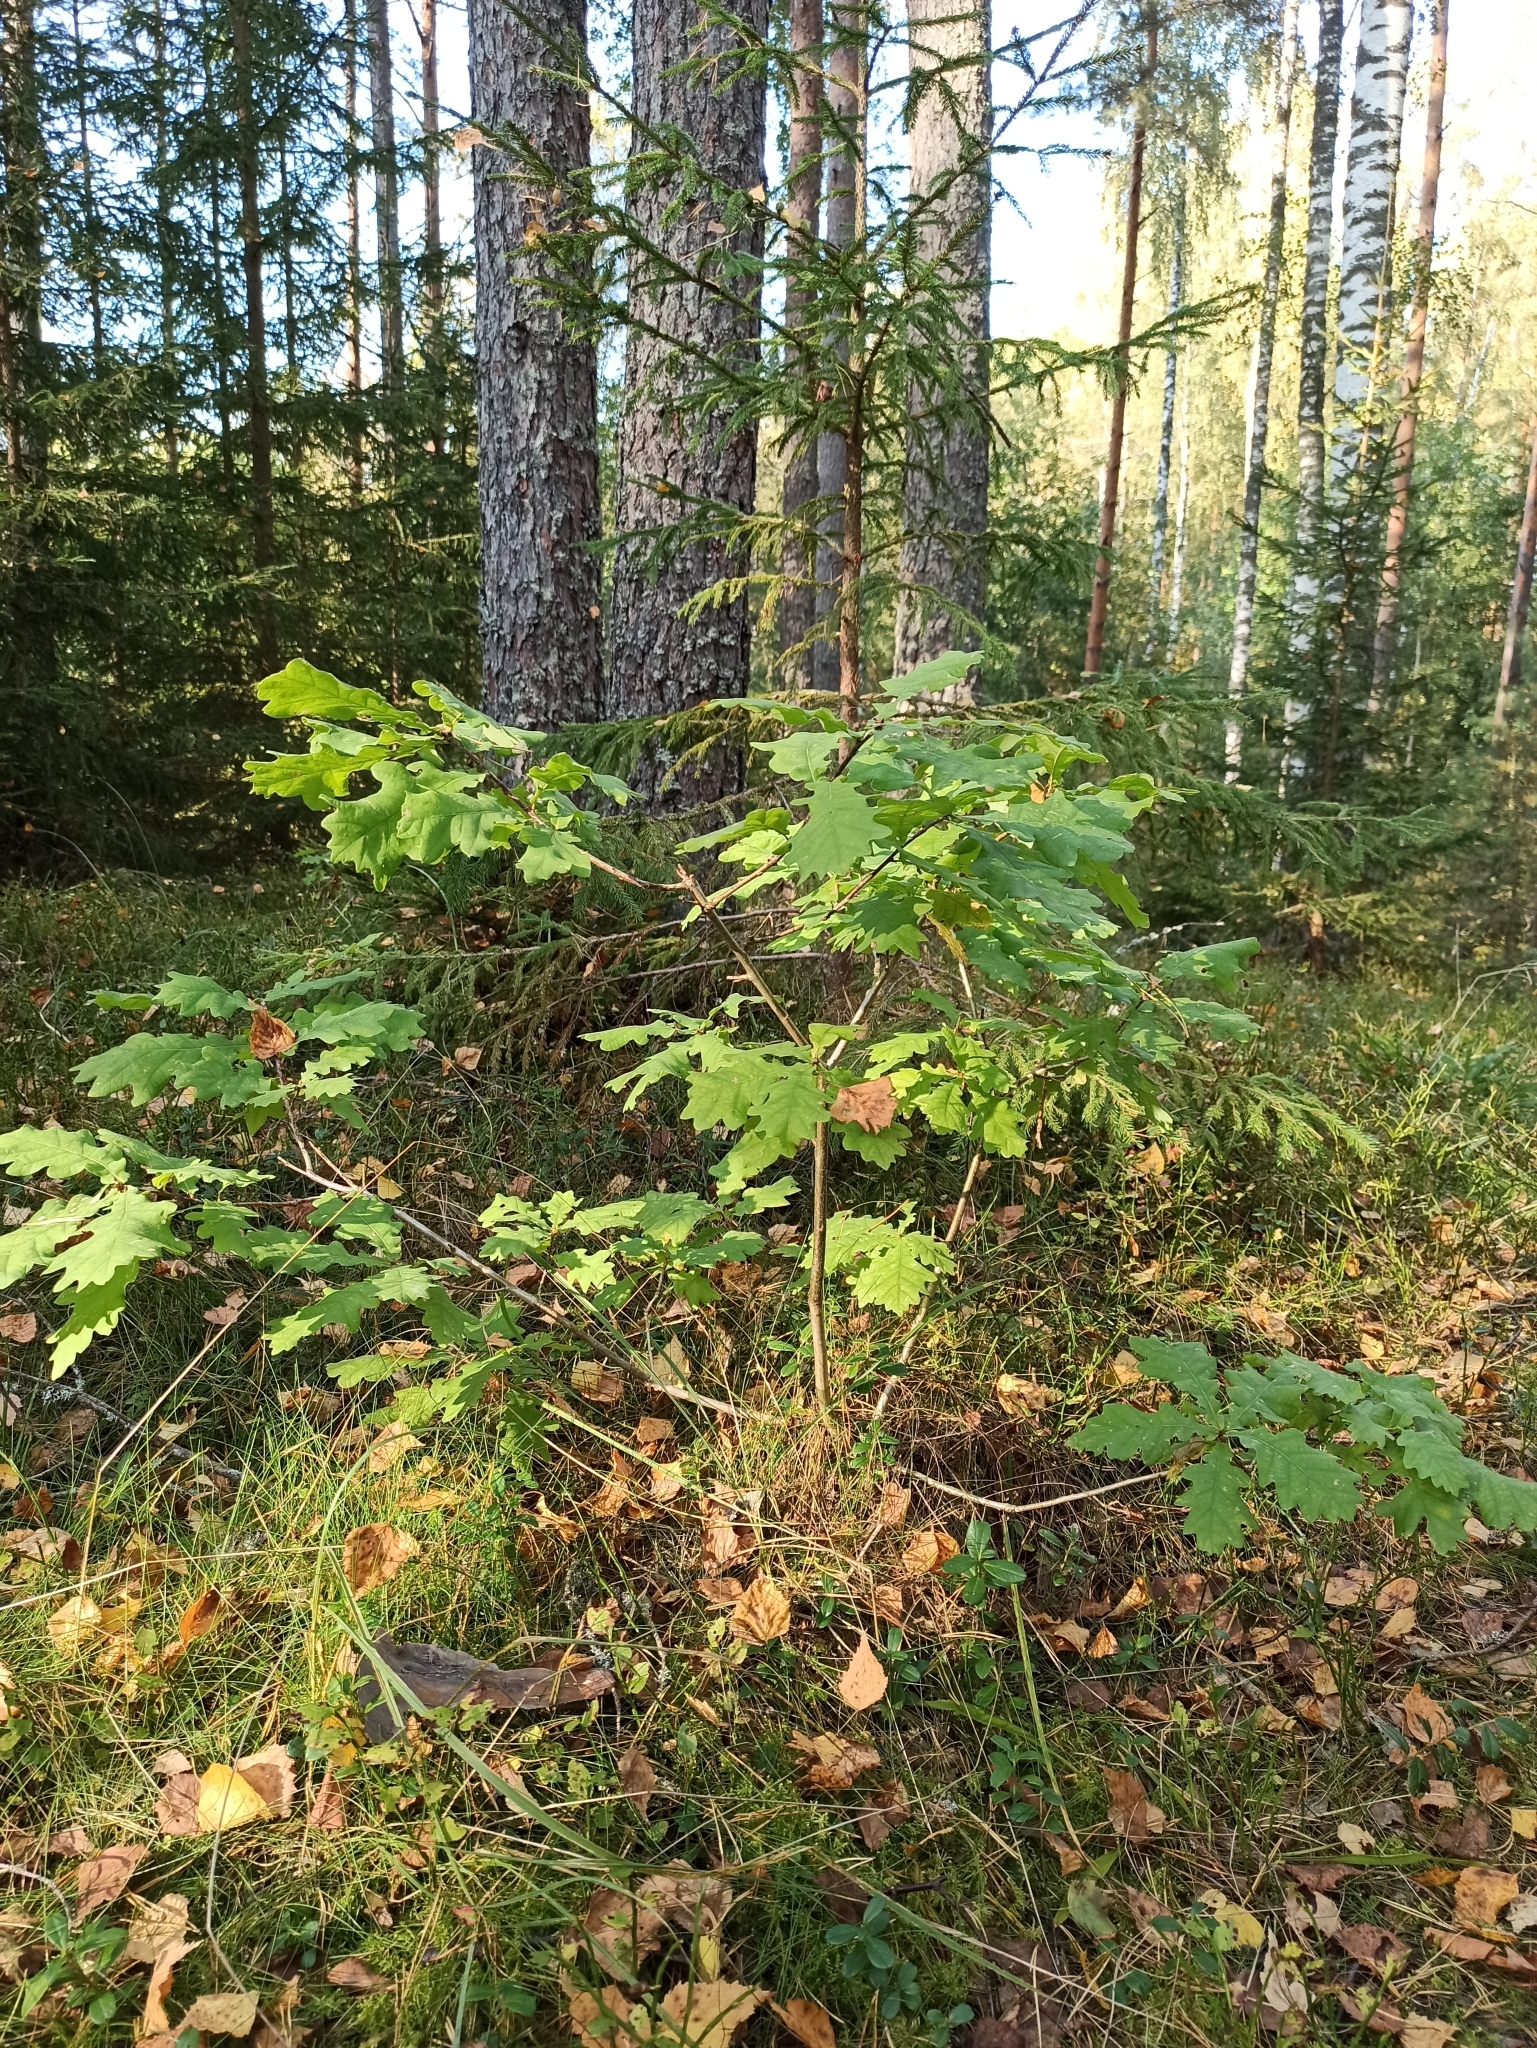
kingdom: Plantae
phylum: Tracheophyta
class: Magnoliopsida
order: Fagales
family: Fagaceae
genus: Quercus
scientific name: Quercus robur
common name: Pedunculate oak
